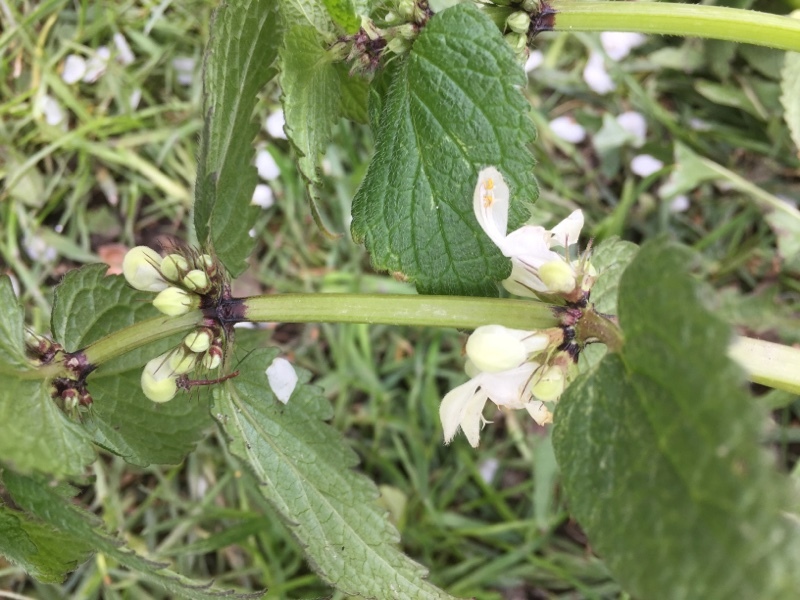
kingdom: Plantae
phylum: Tracheophyta
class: Magnoliopsida
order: Lamiales
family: Lamiaceae
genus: Lamium
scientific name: Lamium album
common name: White dead-nettle
